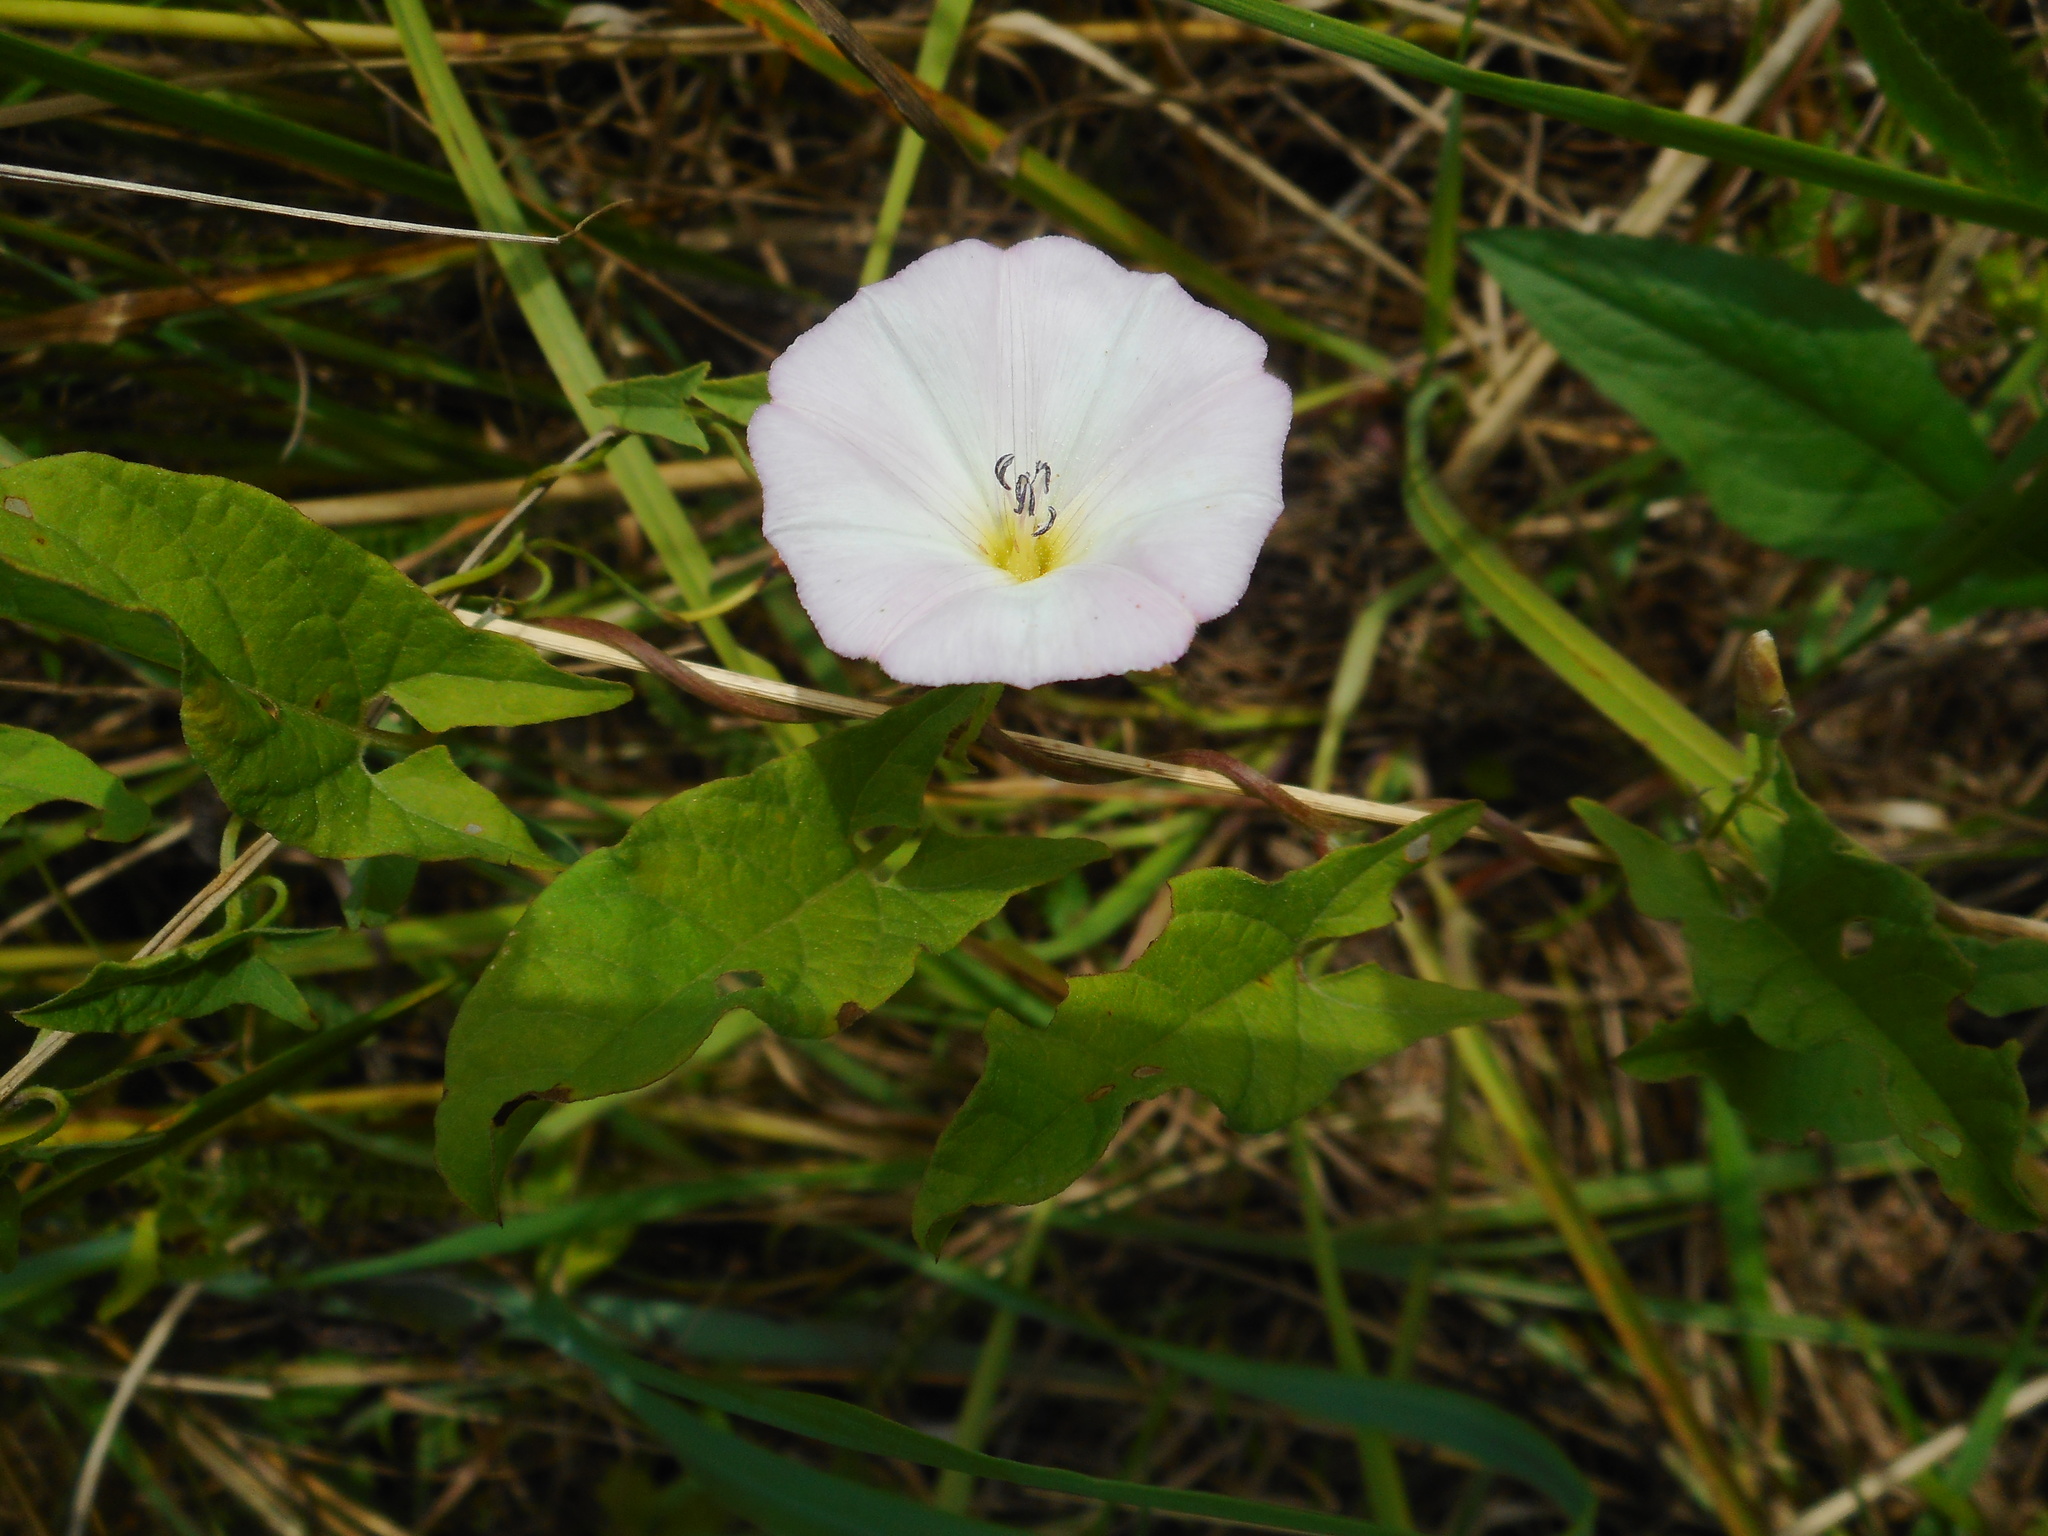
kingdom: Plantae
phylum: Tracheophyta
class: Magnoliopsida
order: Solanales
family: Convolvulaceae
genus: Convolvulus
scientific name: Convolvulus arvensis
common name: Field bindweed
